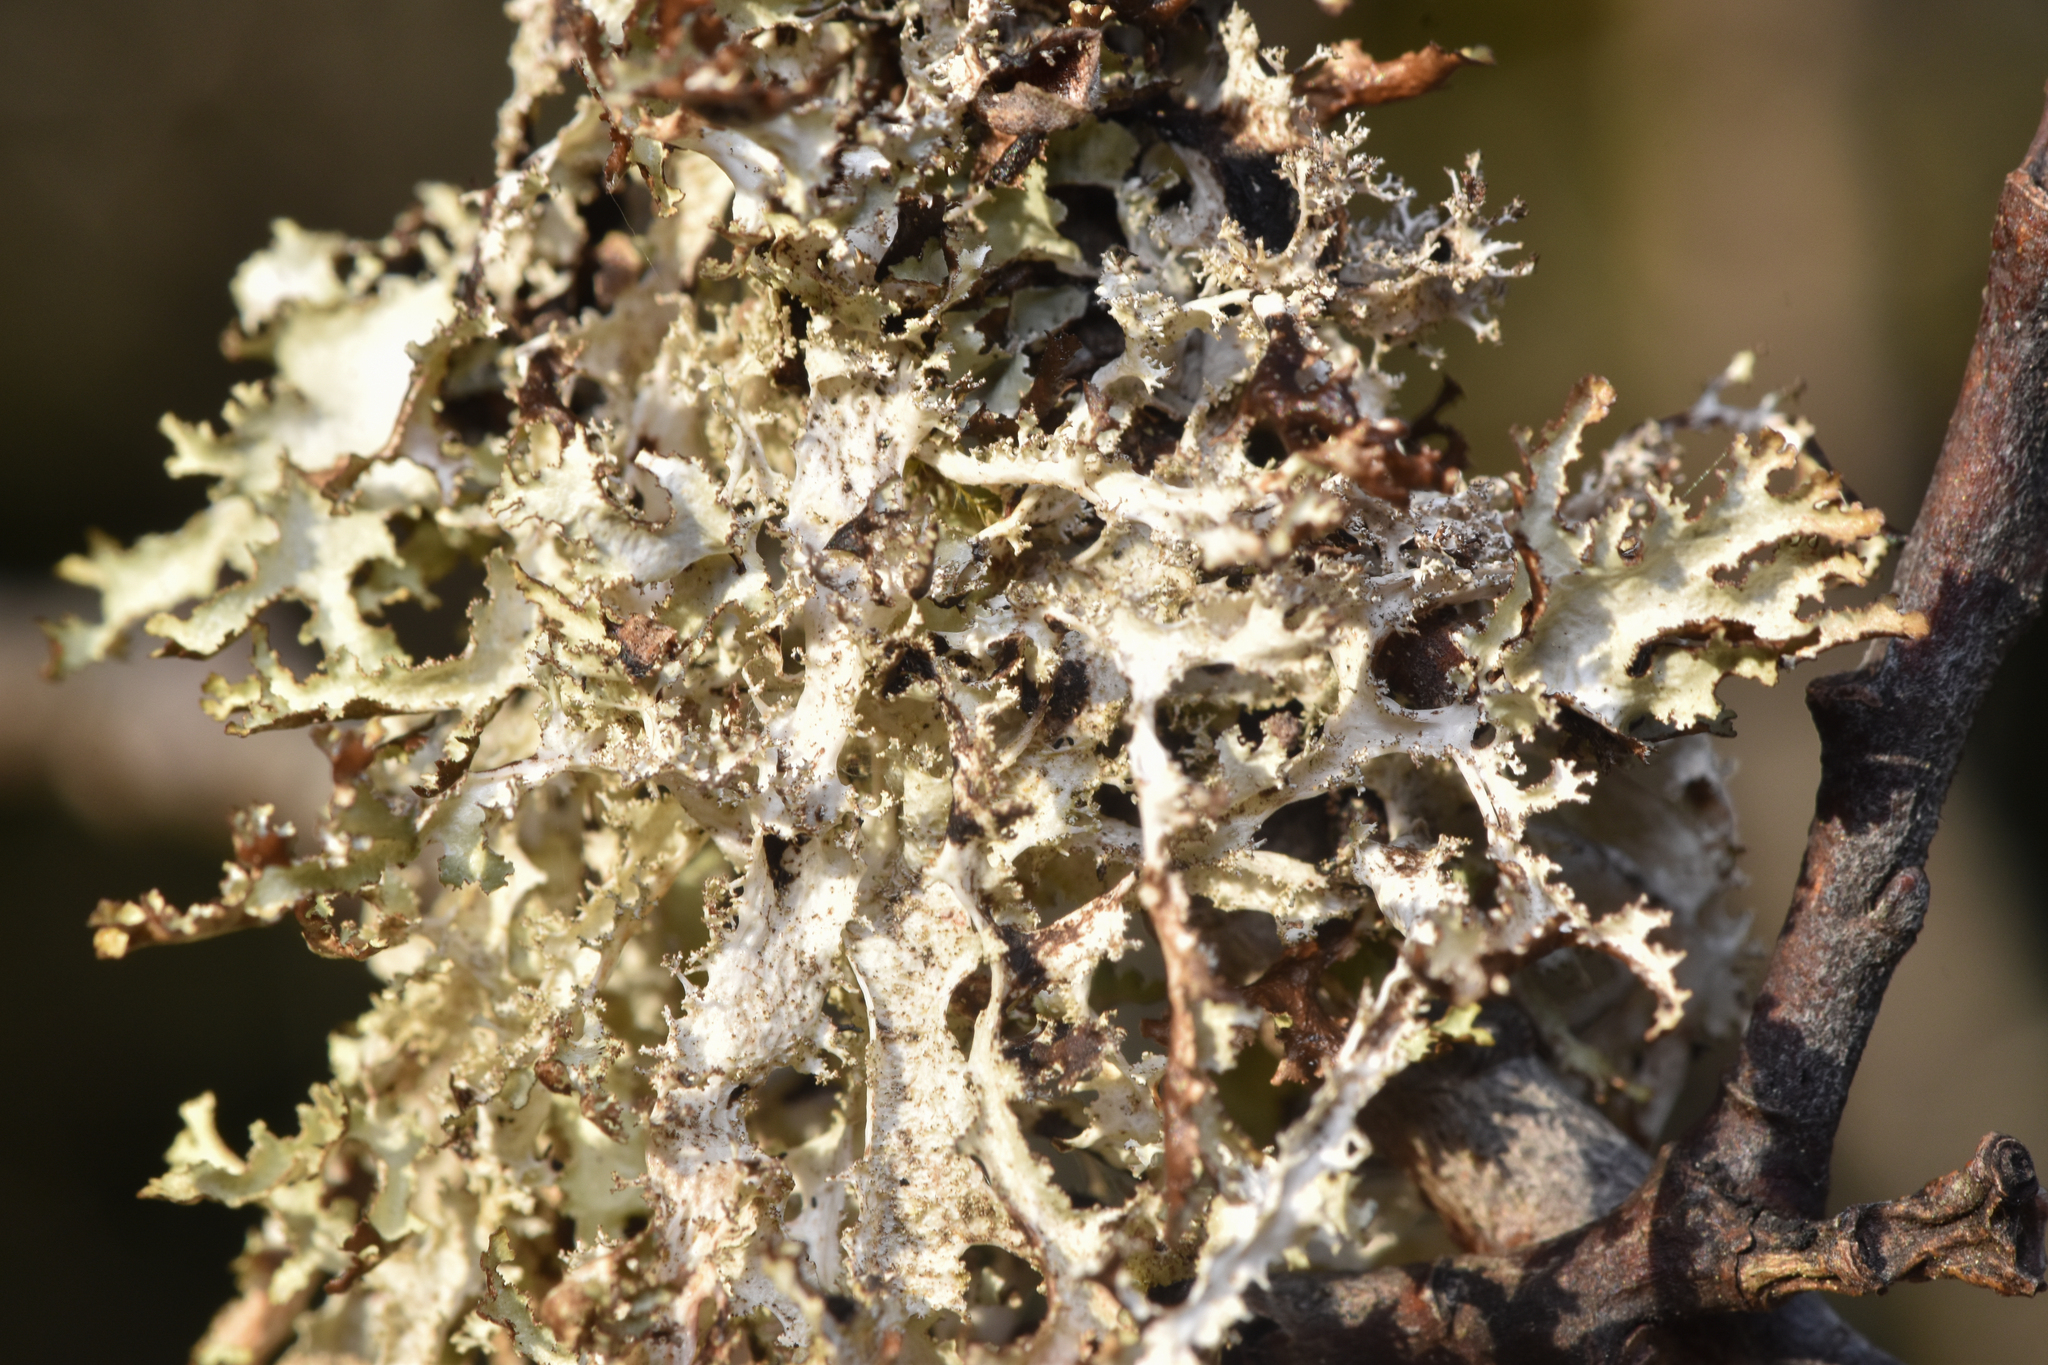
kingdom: Fungi
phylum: Ascomycota
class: Lecanoromycetes
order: Lecanorales
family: Parmeliaceae
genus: Platismatia
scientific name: Platismatia herrei
